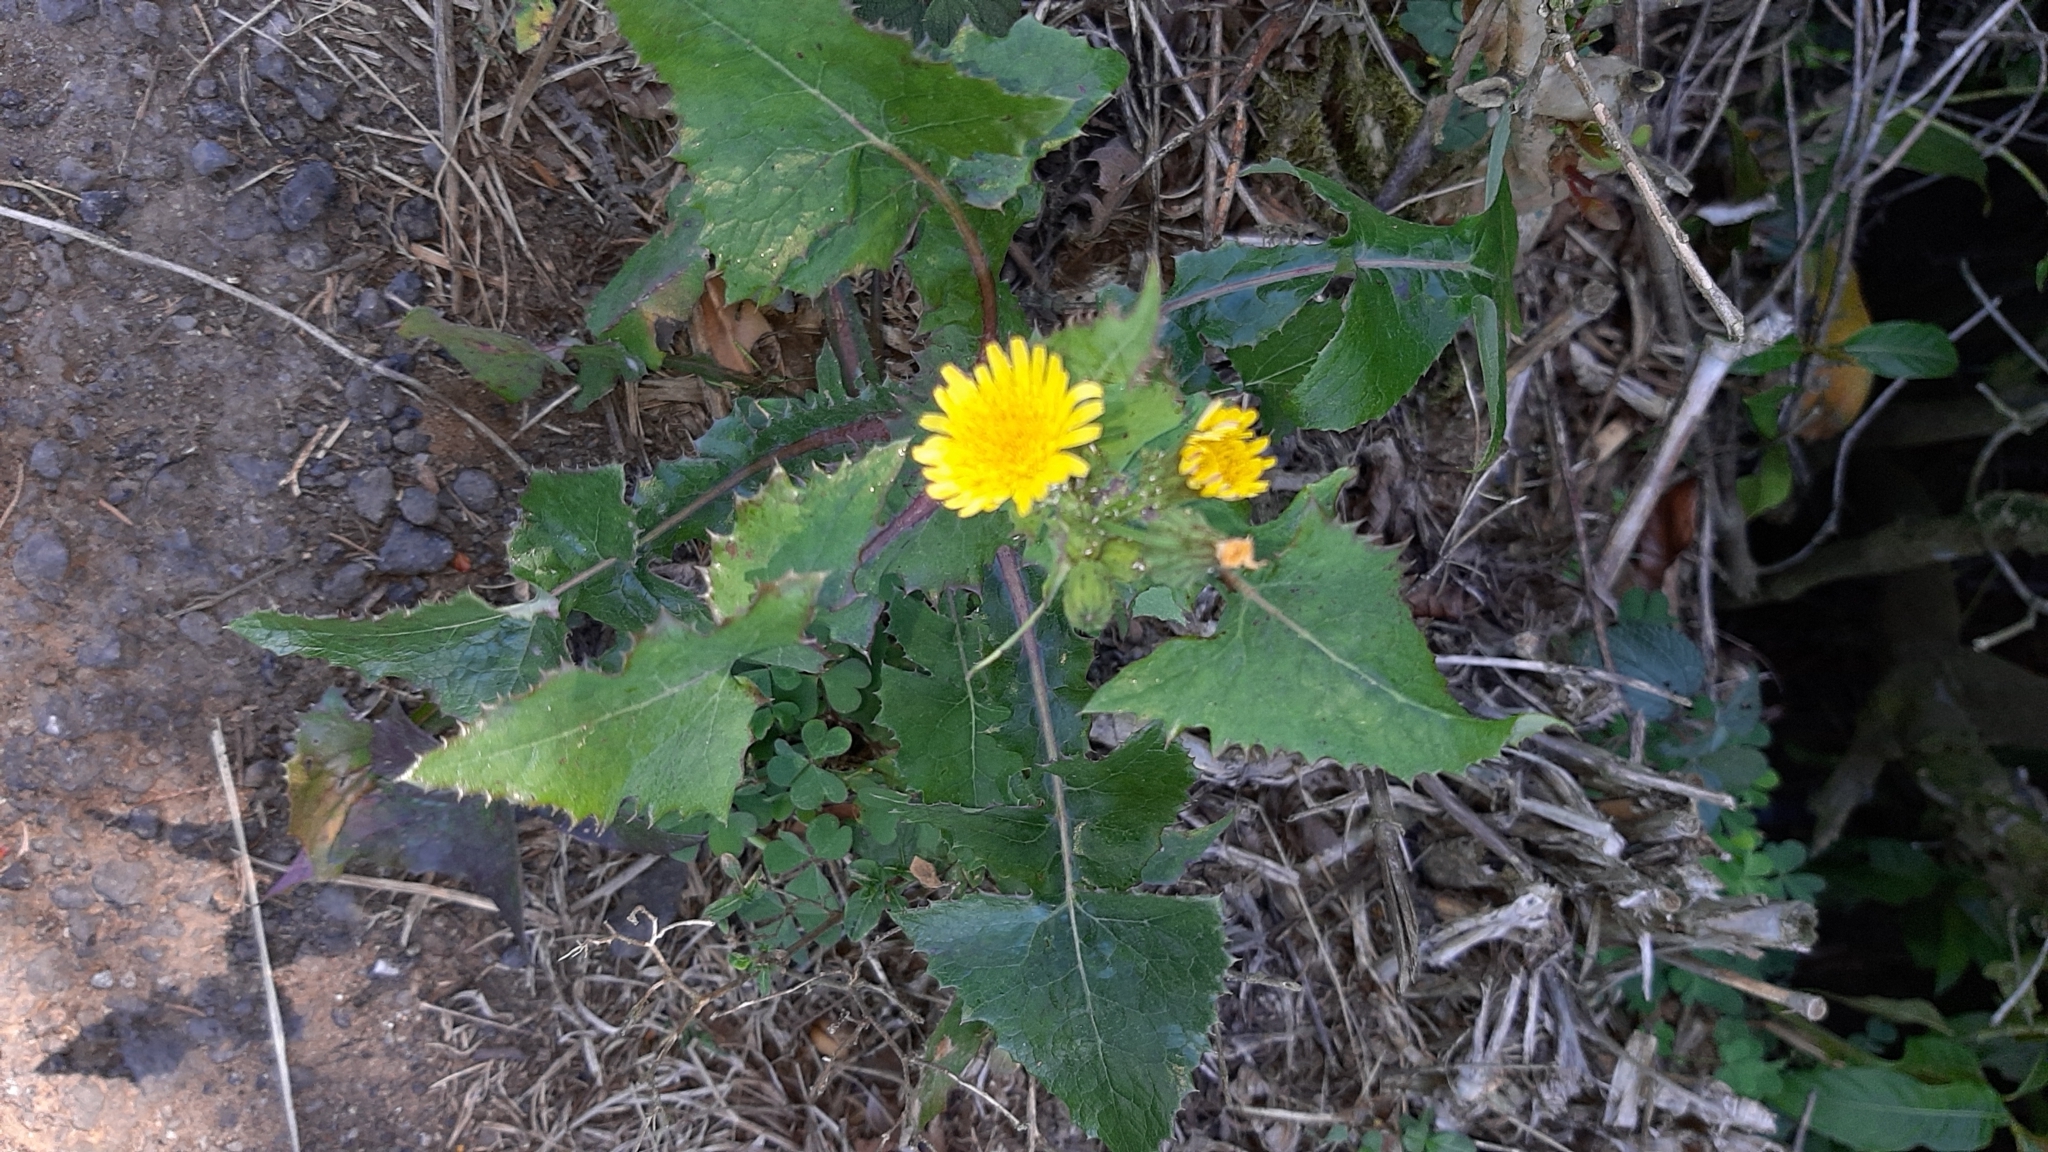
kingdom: Plantae
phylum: Tracheophyta
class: Magnoliopsida
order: Asterales
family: Asteraceae
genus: Sonchus
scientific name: Sonchus oleraceus
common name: Common sowthistle
